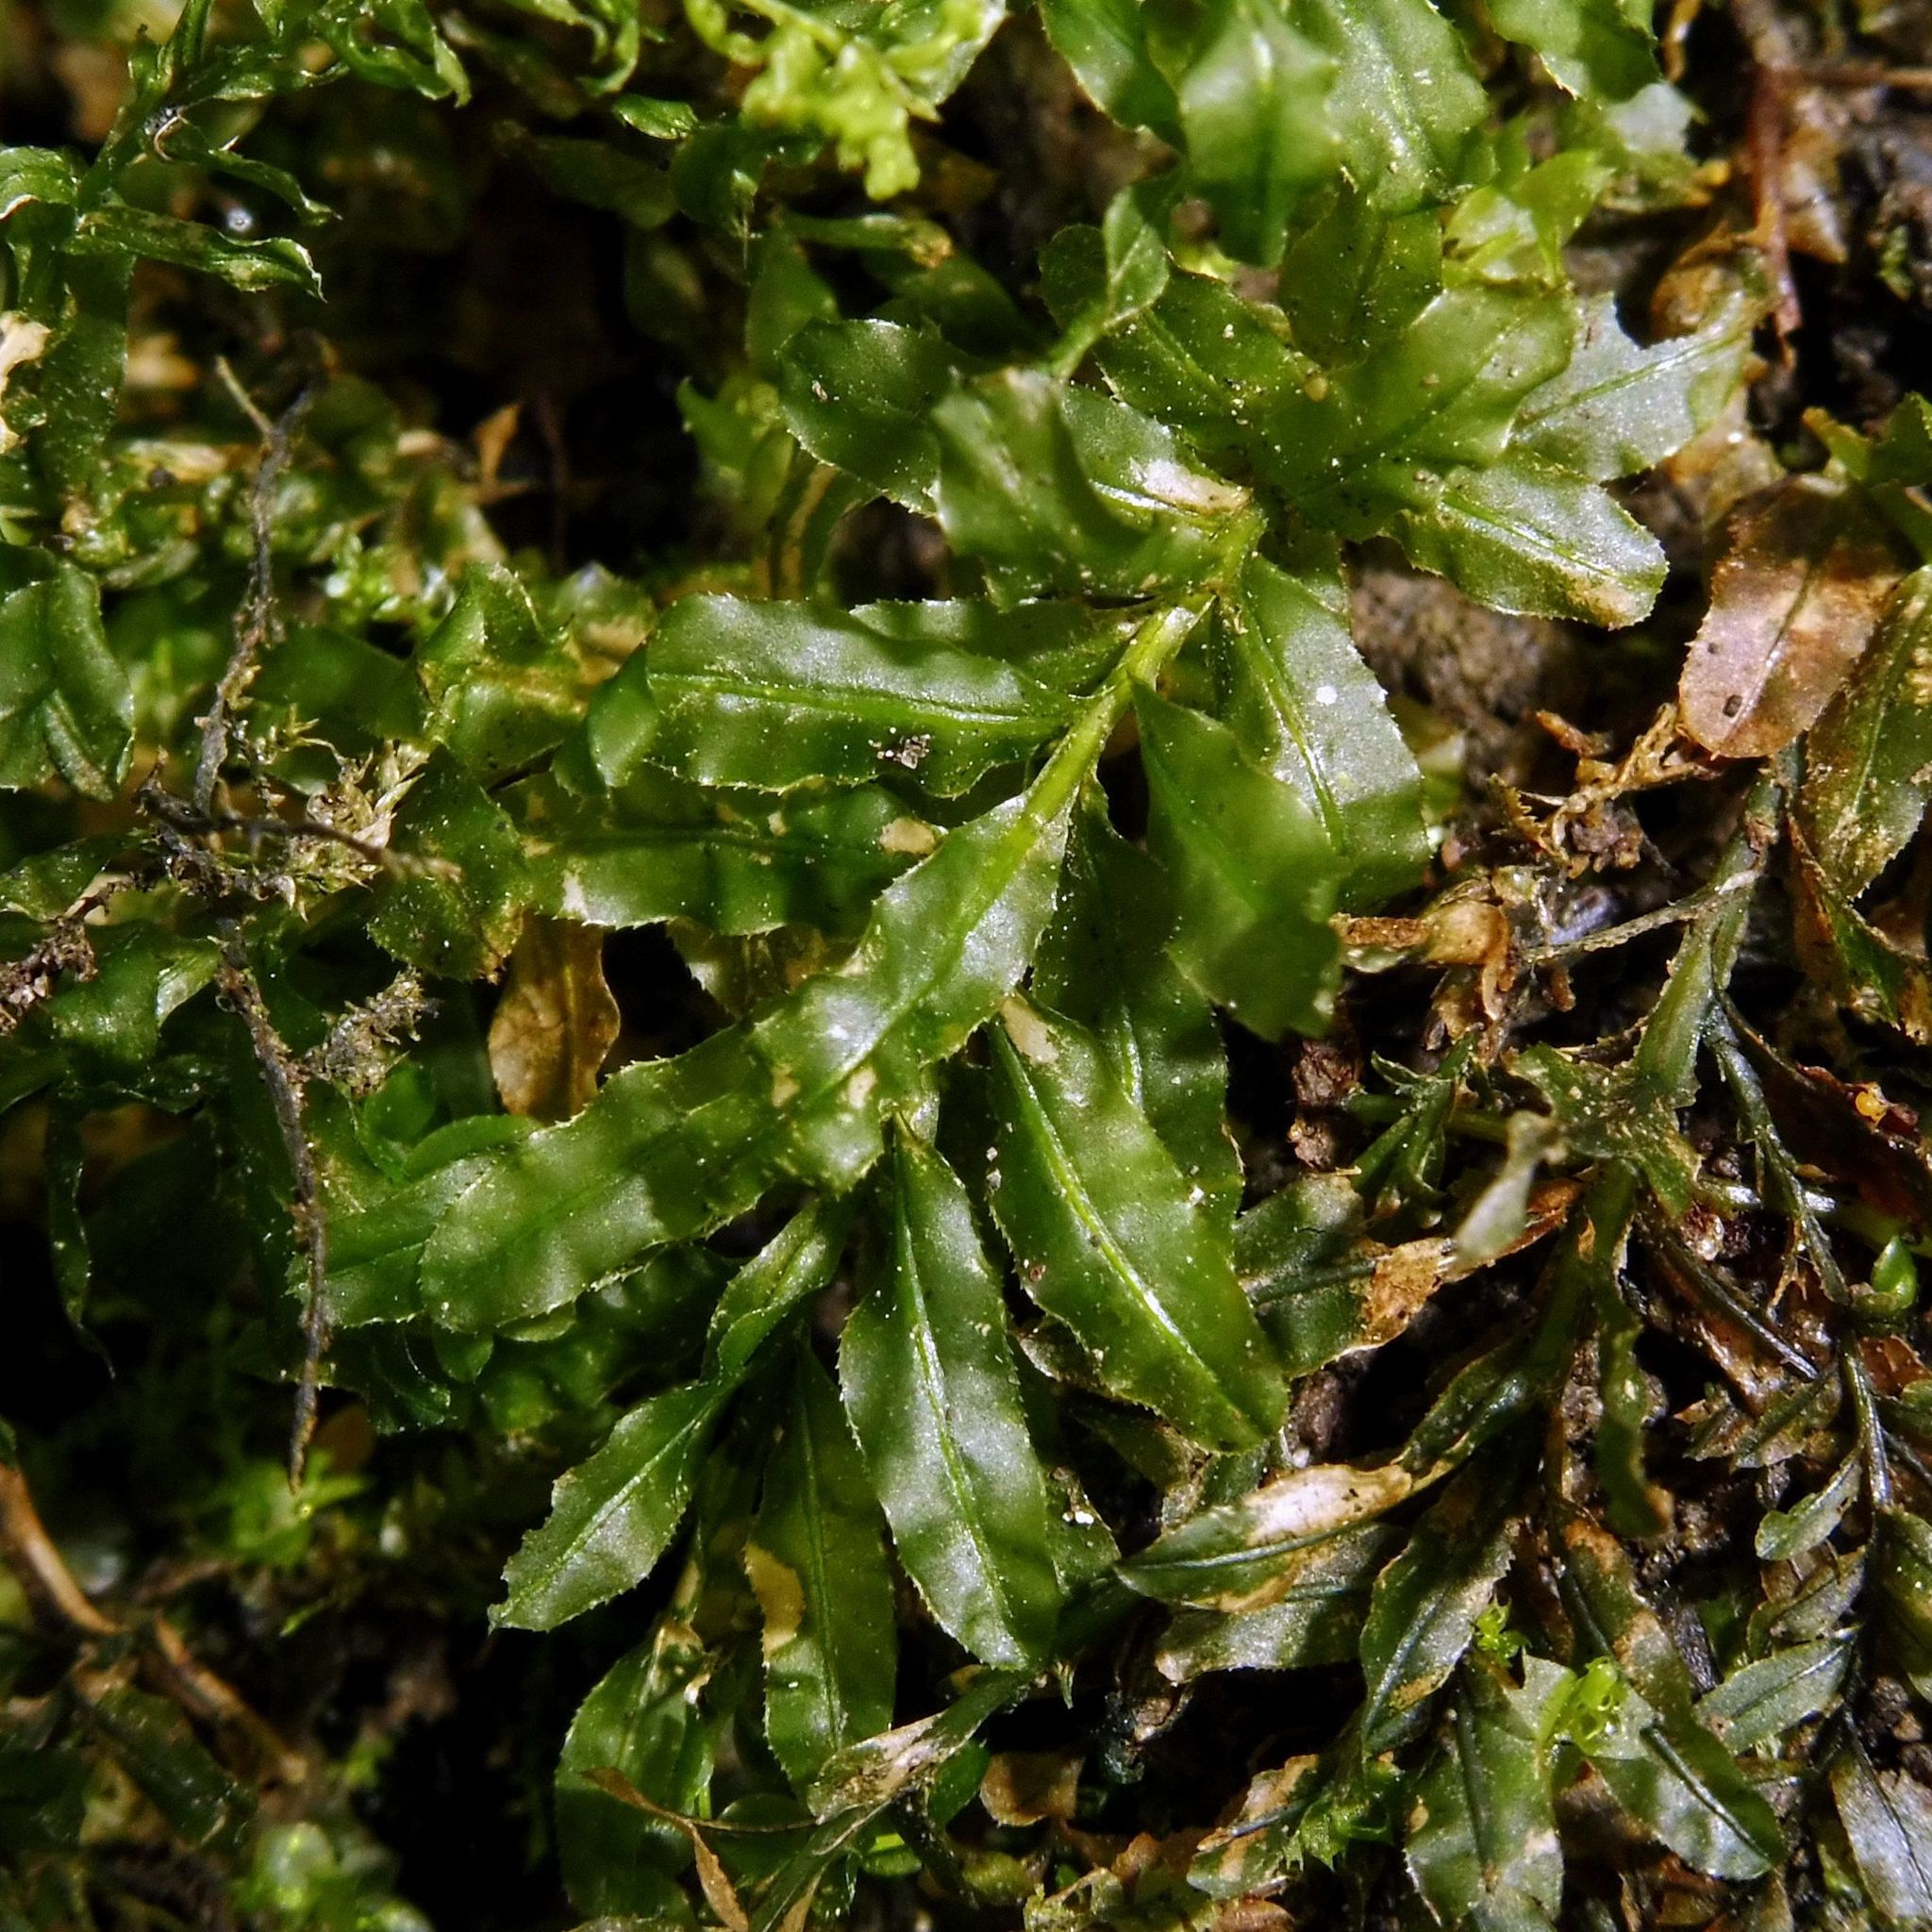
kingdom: Plantae
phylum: Bryophyta
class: Bryopsida
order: Bryales
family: Mniaceae
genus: Plagiomnium
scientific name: Plagiomnium undulatum
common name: Hart's-tongue thyme-moss
